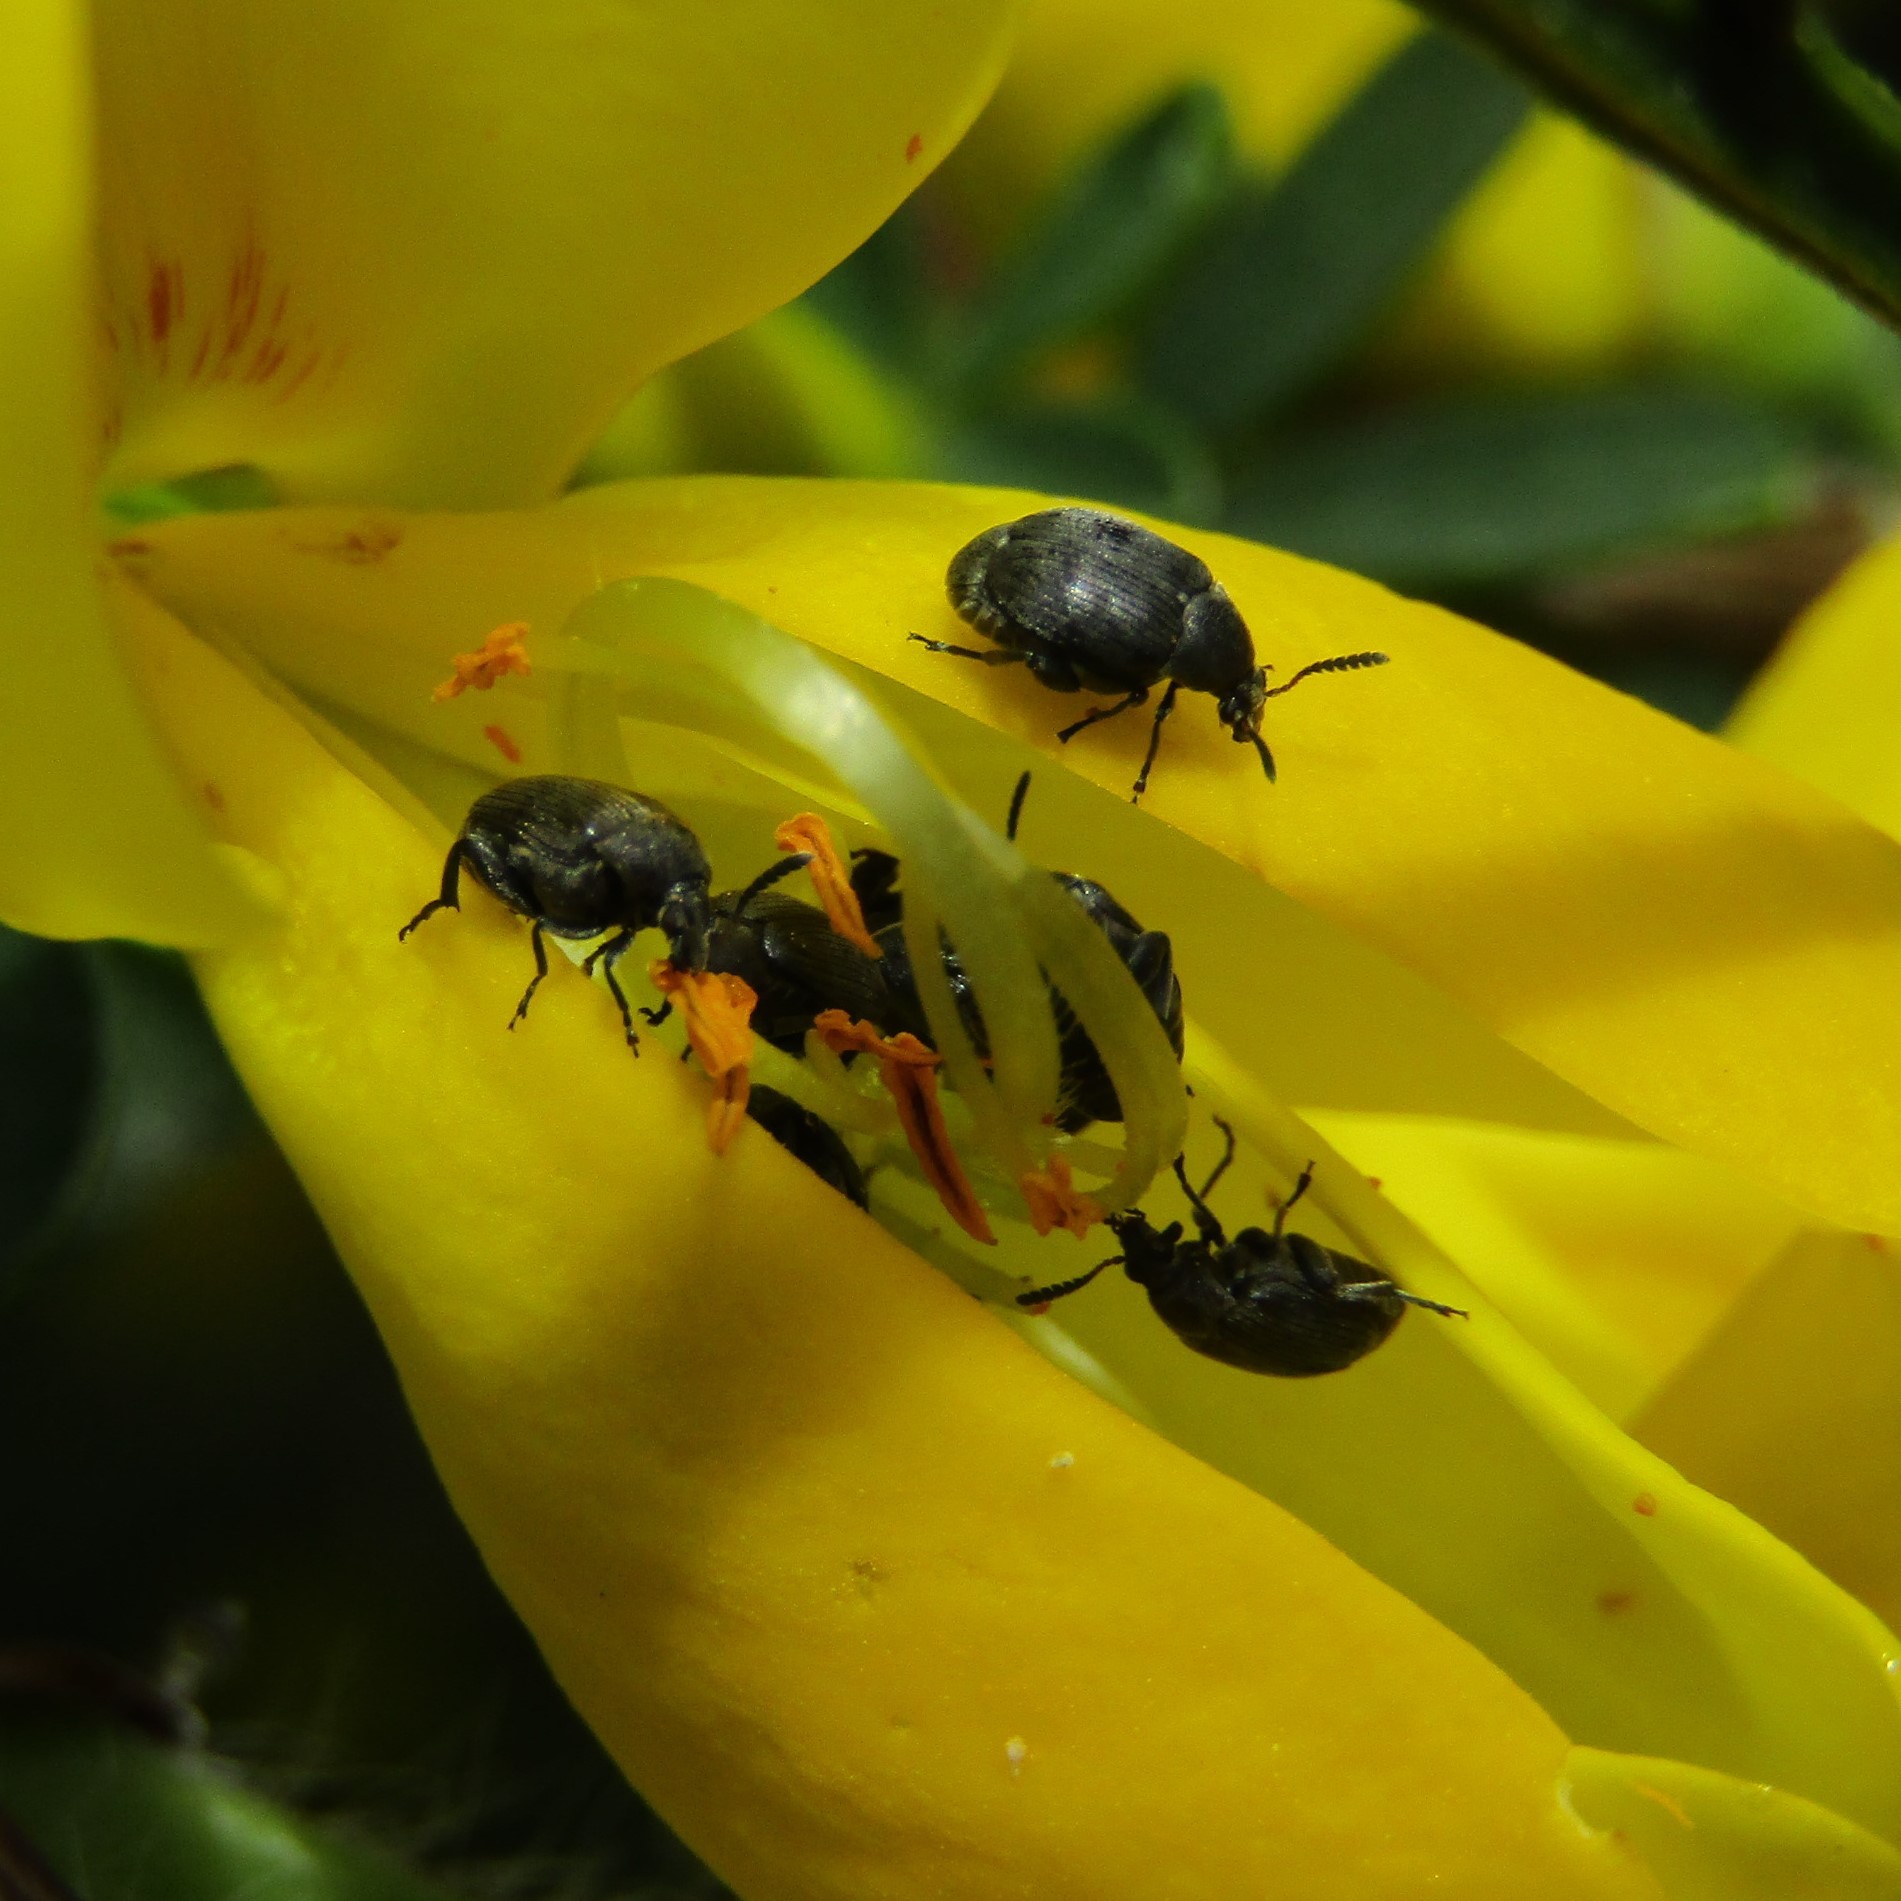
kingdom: Animalia
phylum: Arthropoda
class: Insecta
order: Coleoptera
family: Chrysomelidae
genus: Bruchidius
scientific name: Bruchidius villosus
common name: Scotch broom bruchid
